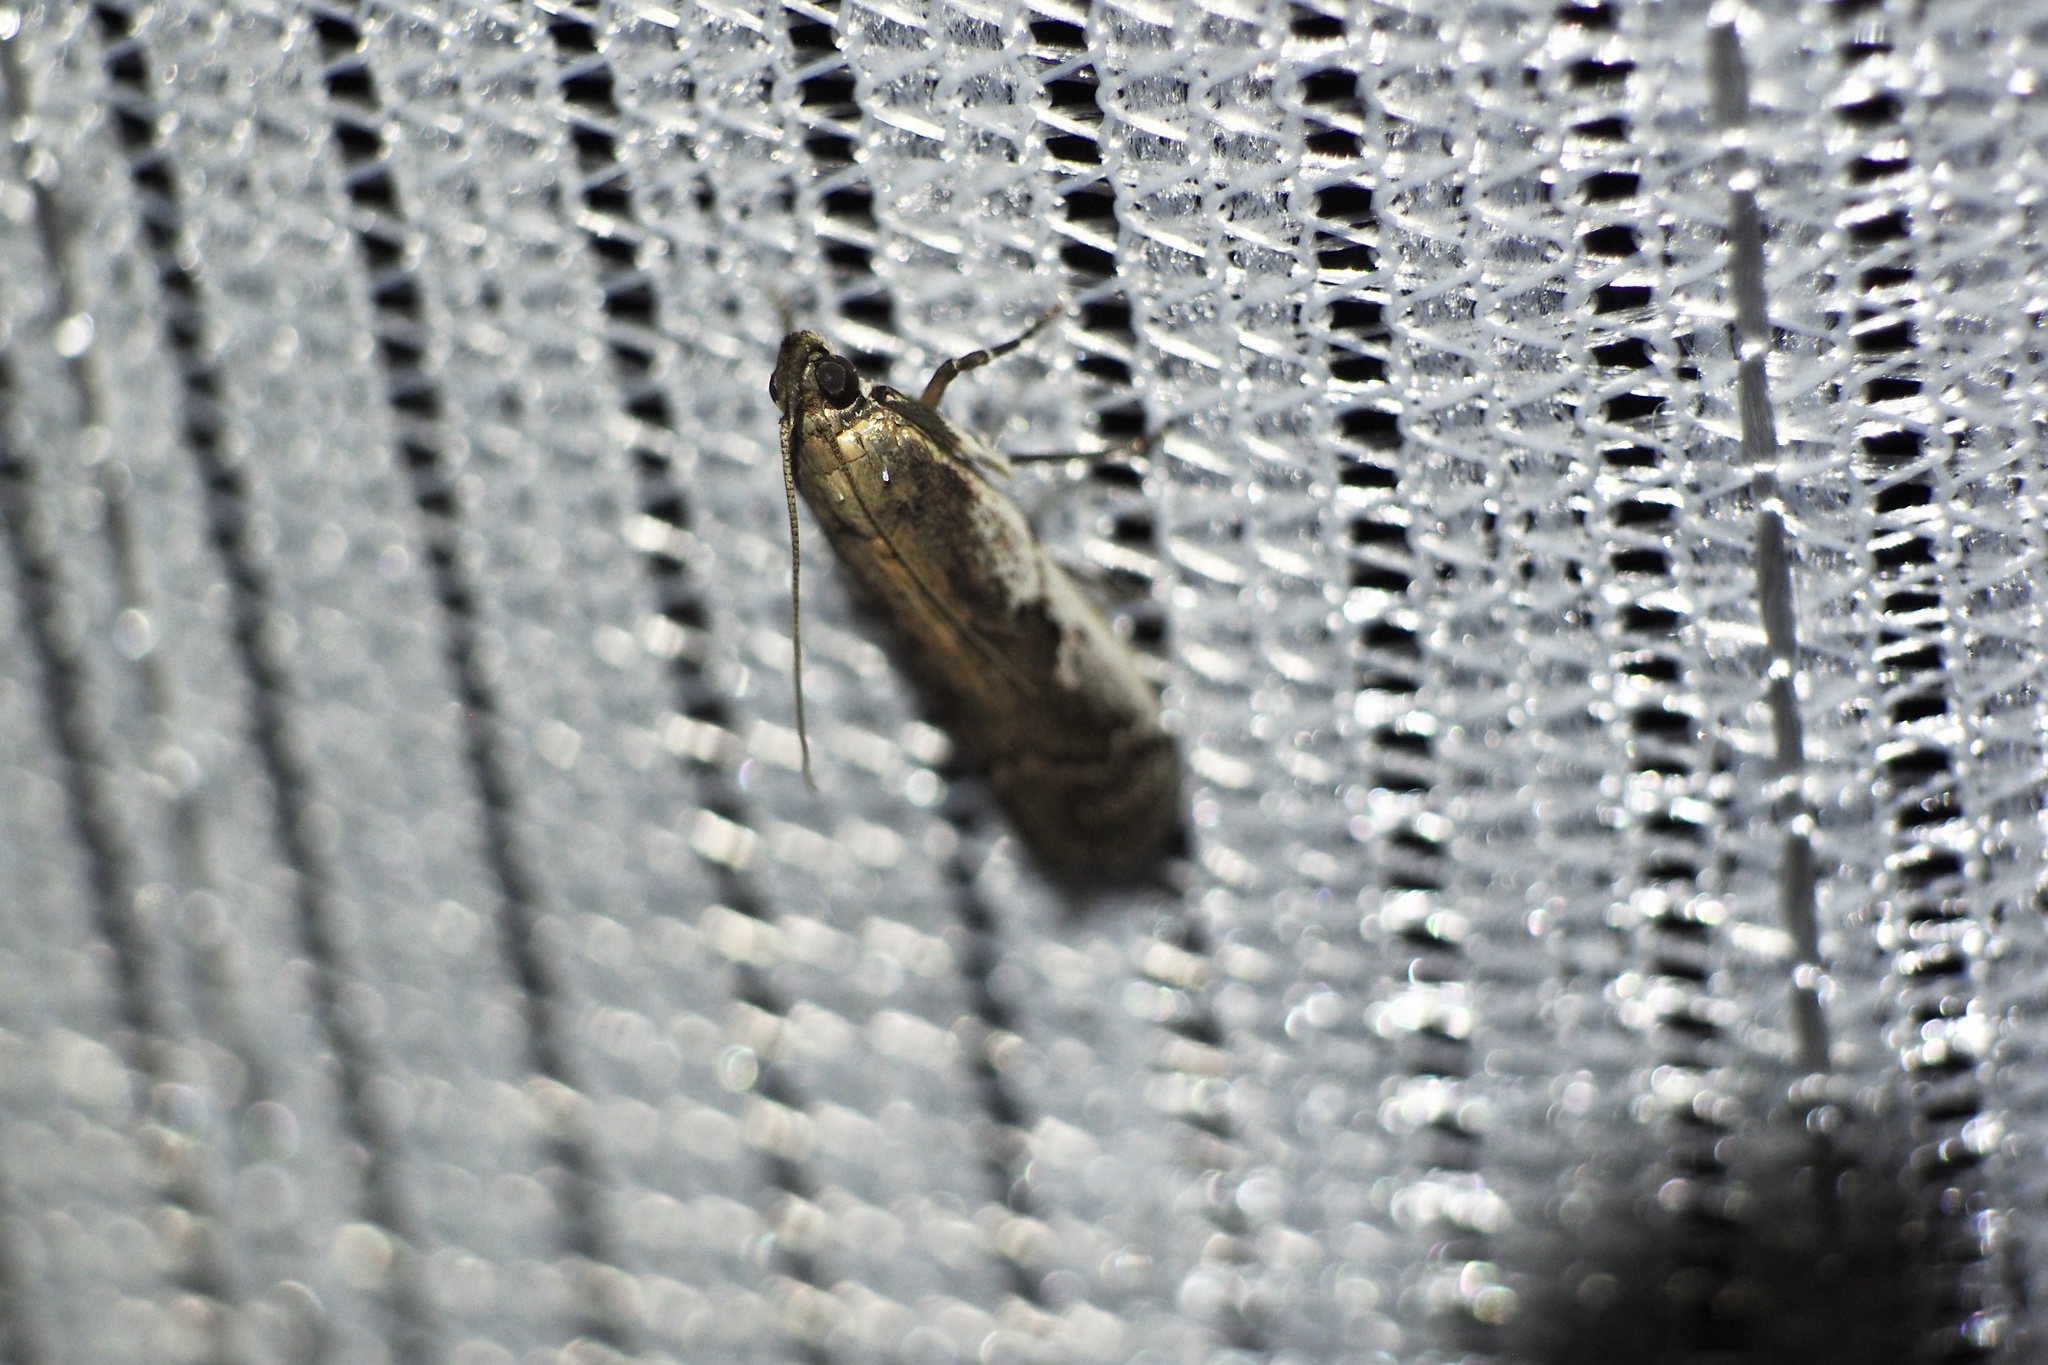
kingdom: Animalia
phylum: Arthropoda
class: Insecta
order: Lepidoptera
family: Pyralidae
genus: Rhodophaea
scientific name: Rhodophaea
